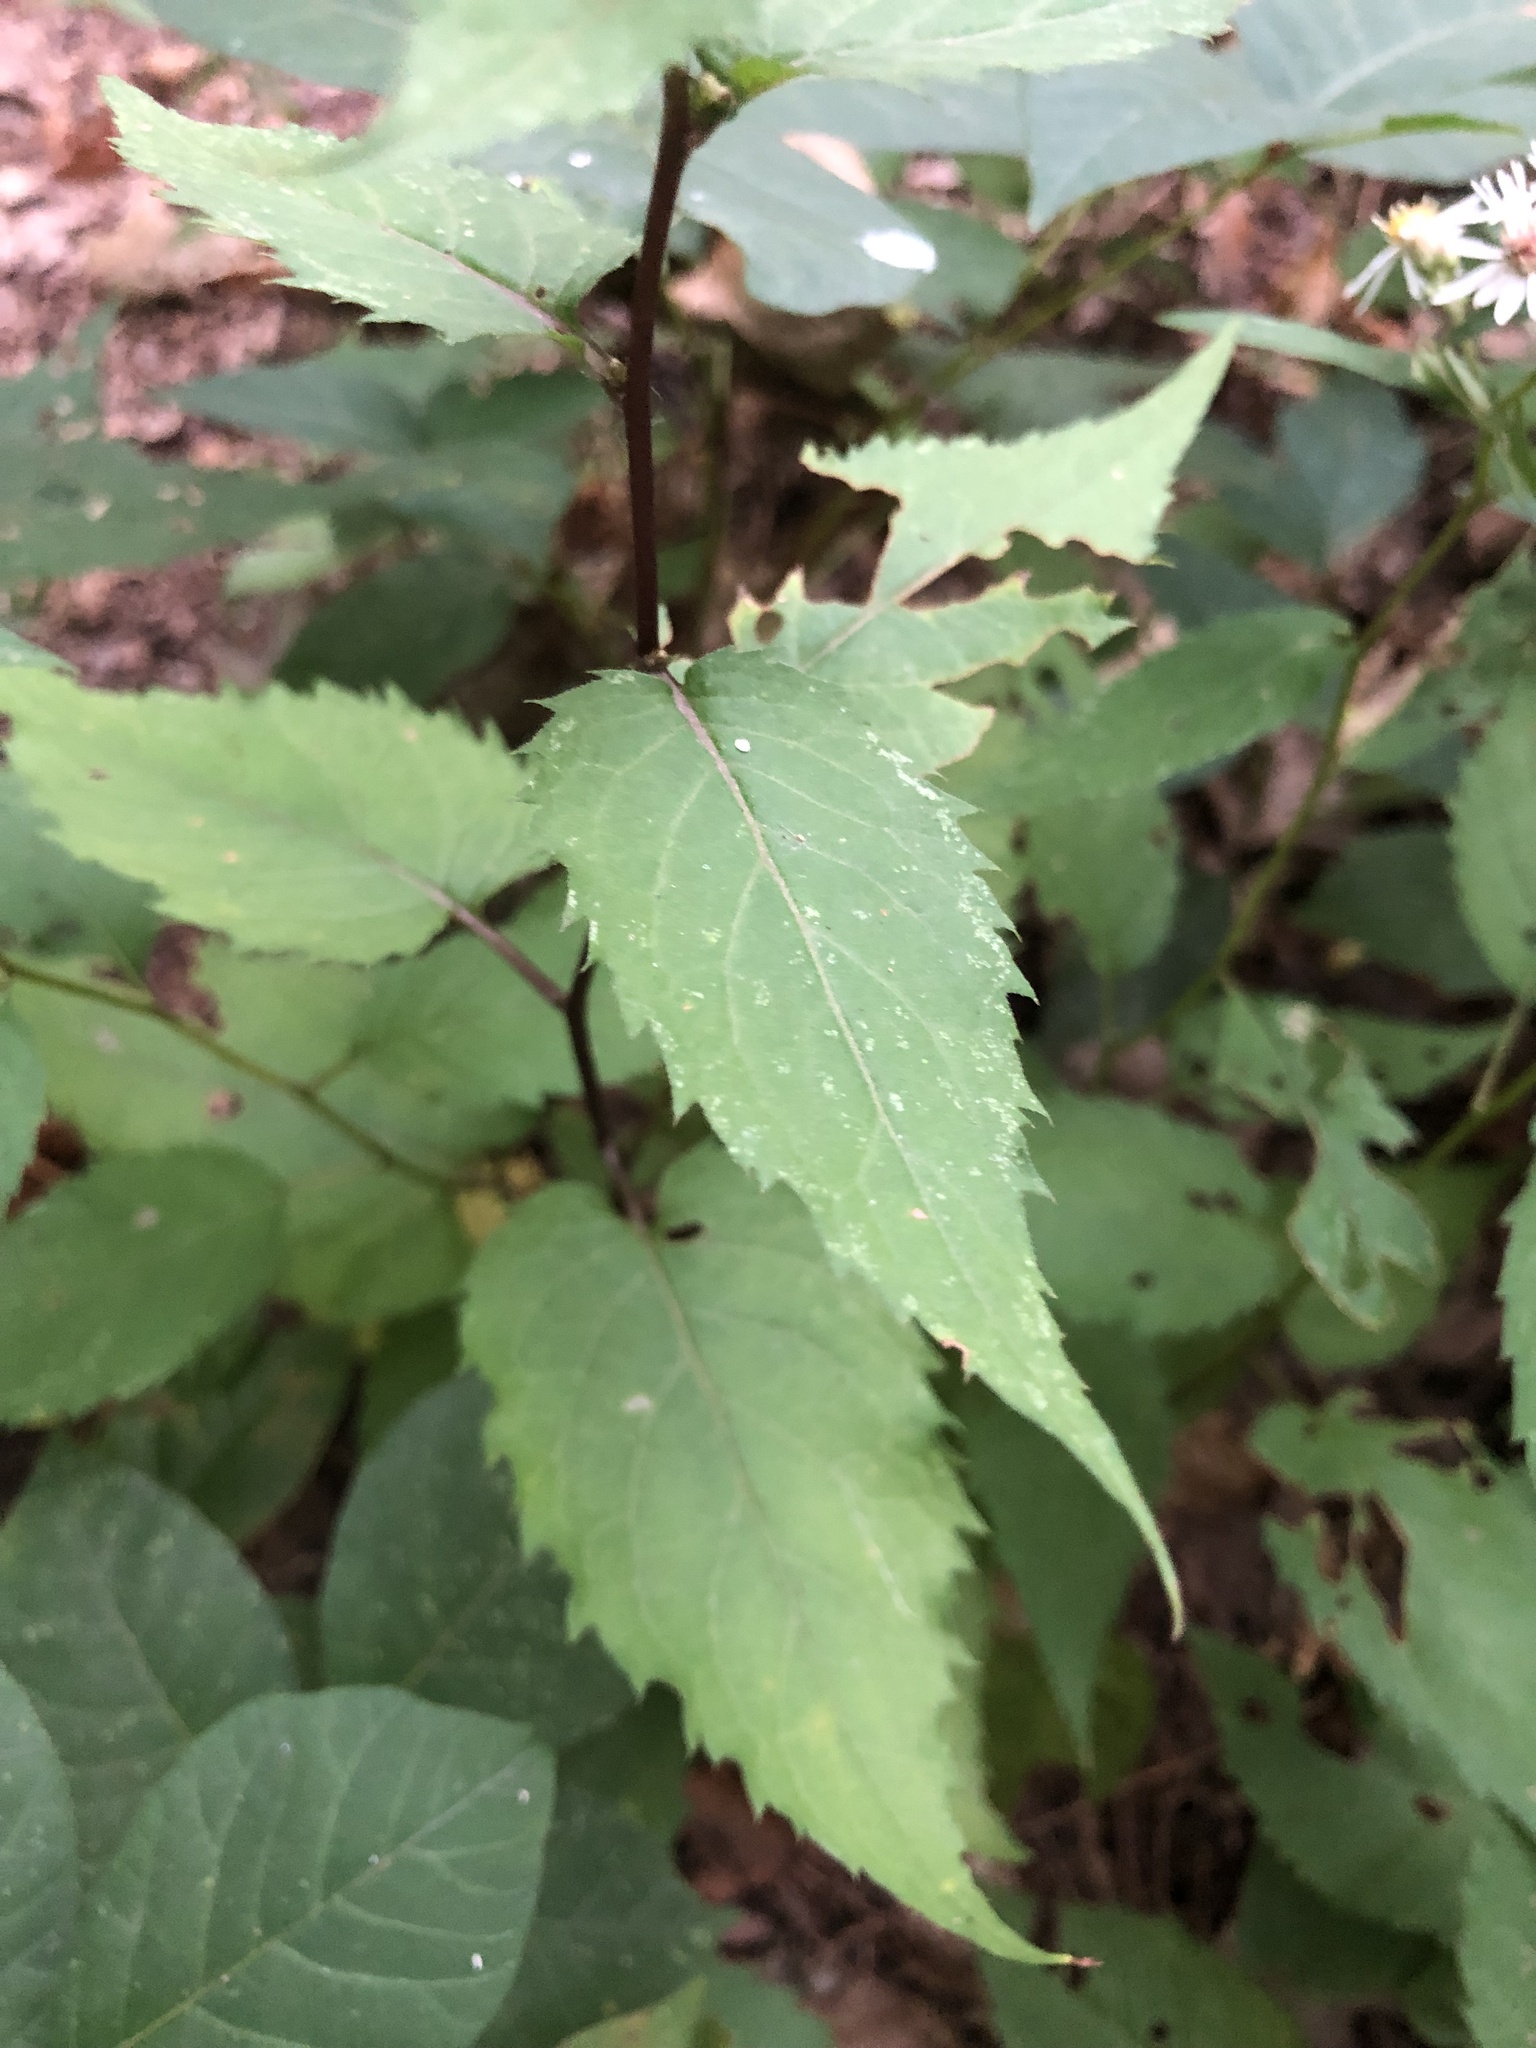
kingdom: Plantae
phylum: Tracheophyta
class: Magnoliopsida
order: Asterales
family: Asteraceae
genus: Eurybia
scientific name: Eurybia divaricata
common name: White wood aster
